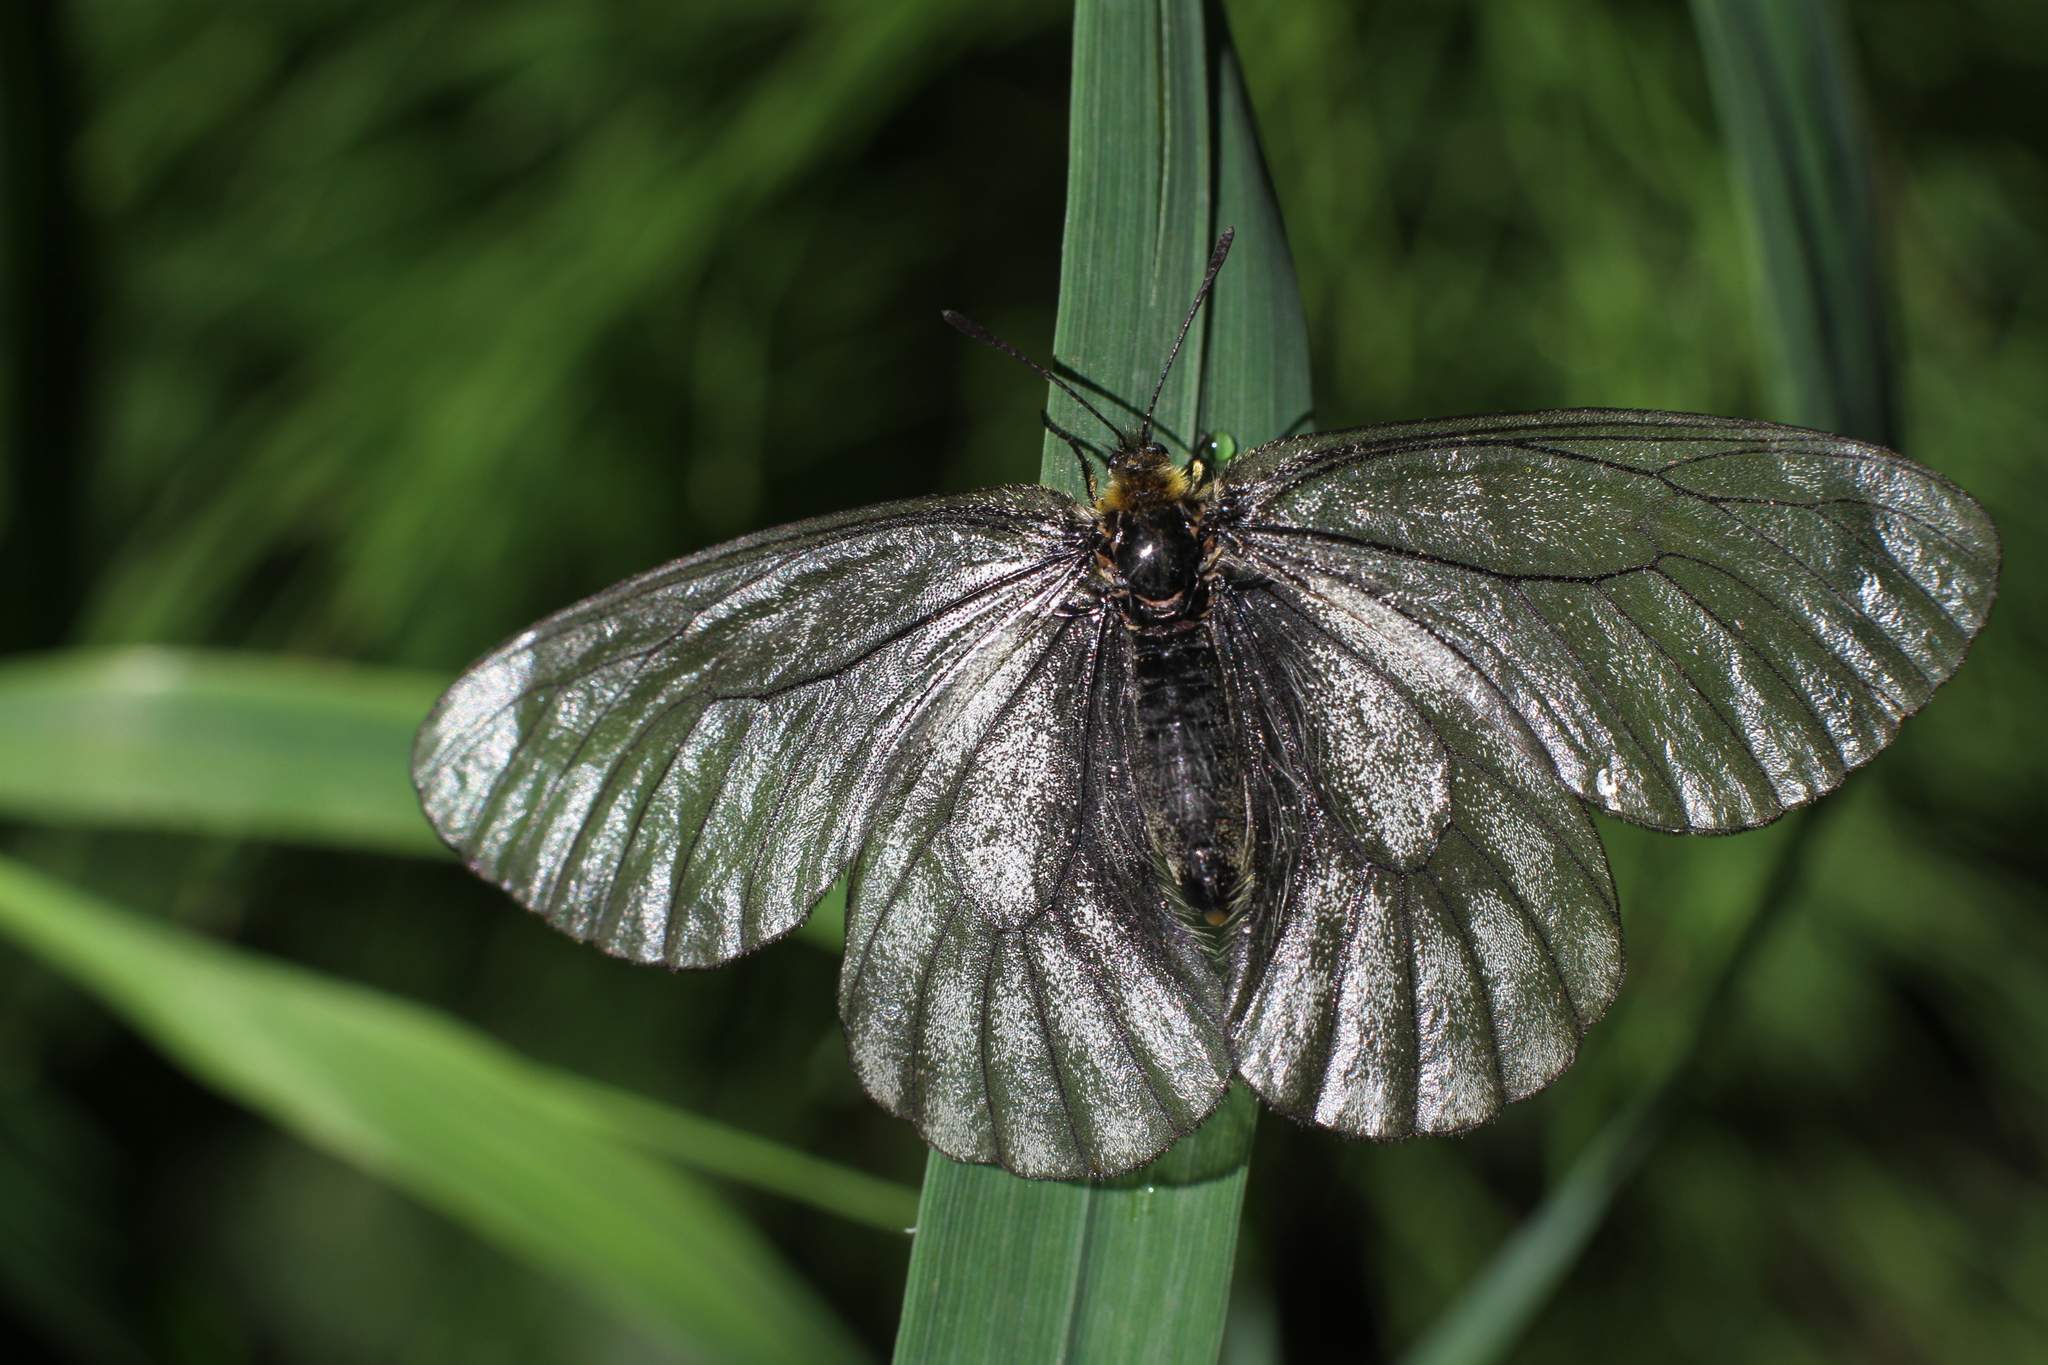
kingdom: Animalia
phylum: Arthropoda
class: Insecta
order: Lepidoptera
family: Papilionidae
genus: Parnassius
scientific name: Parnassius stubbendorfii
